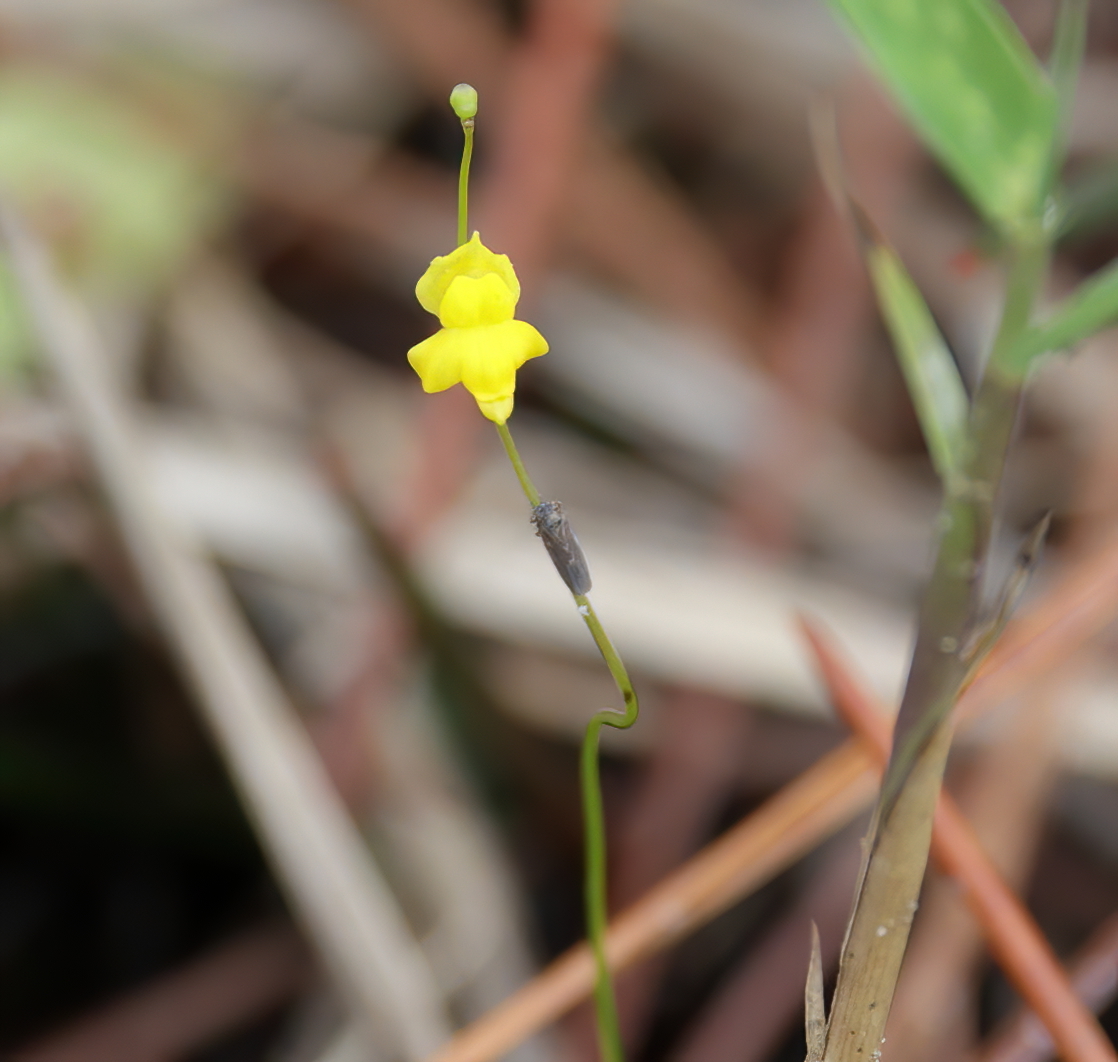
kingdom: Plantae
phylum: Tracheophyta
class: Magnoliopsida
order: Lamiales
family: Lentibulariaceae
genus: Utricularia
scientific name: Utricularia subulata
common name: Tiny bladderwort
